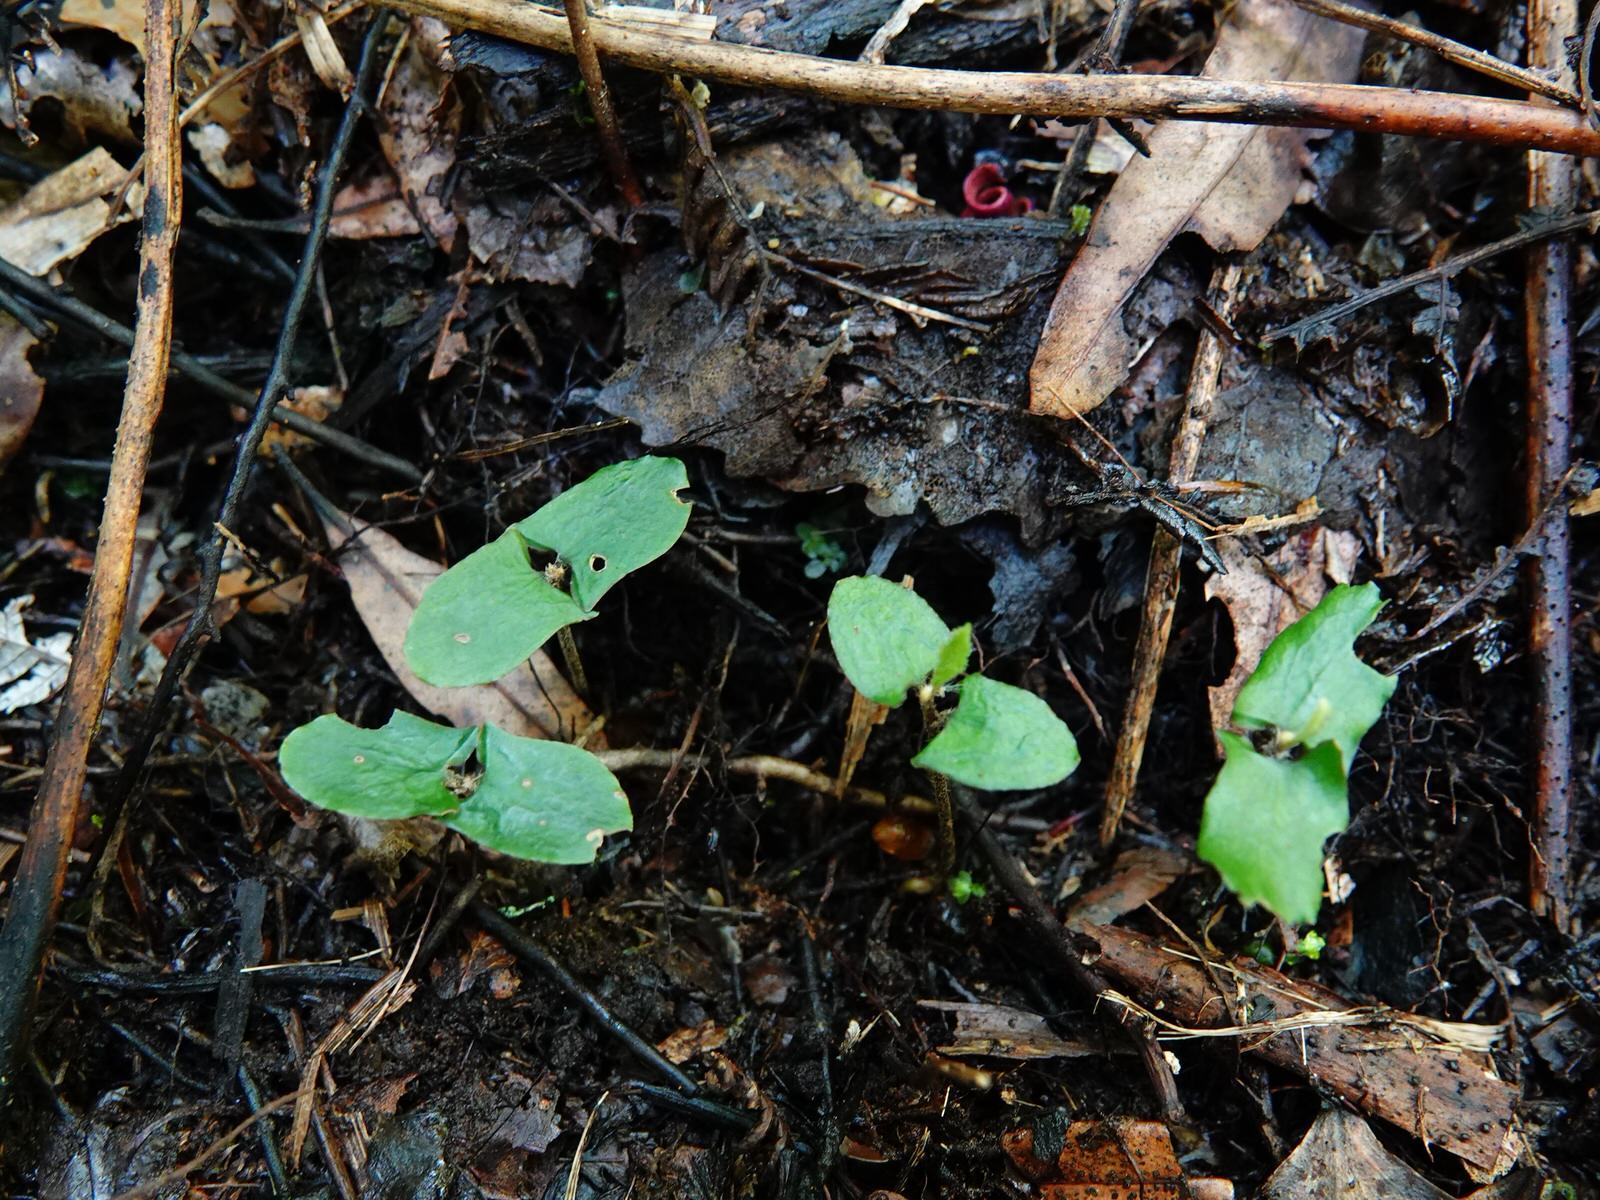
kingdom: Plantae
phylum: Tracheophyta
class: Magnoliopsida
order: Proteales
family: Proteaceae
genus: Knightia
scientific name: Knightia excelsa
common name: New zealand-honeysuckle
